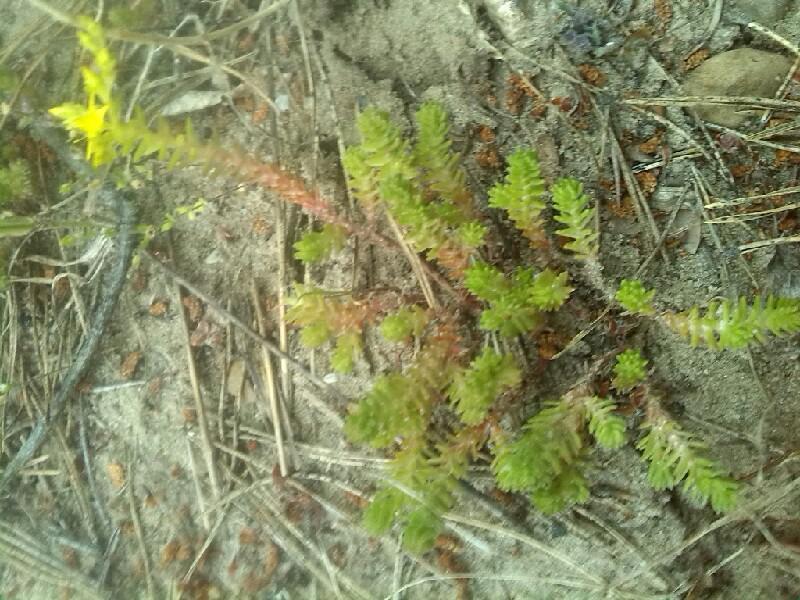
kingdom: Plantae
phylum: Tracheophyta
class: Magnoliopsida
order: Saxifragales
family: Crassulaceae
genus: Sedum
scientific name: Sedum sexangulare
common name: Tasteless stonecrop
